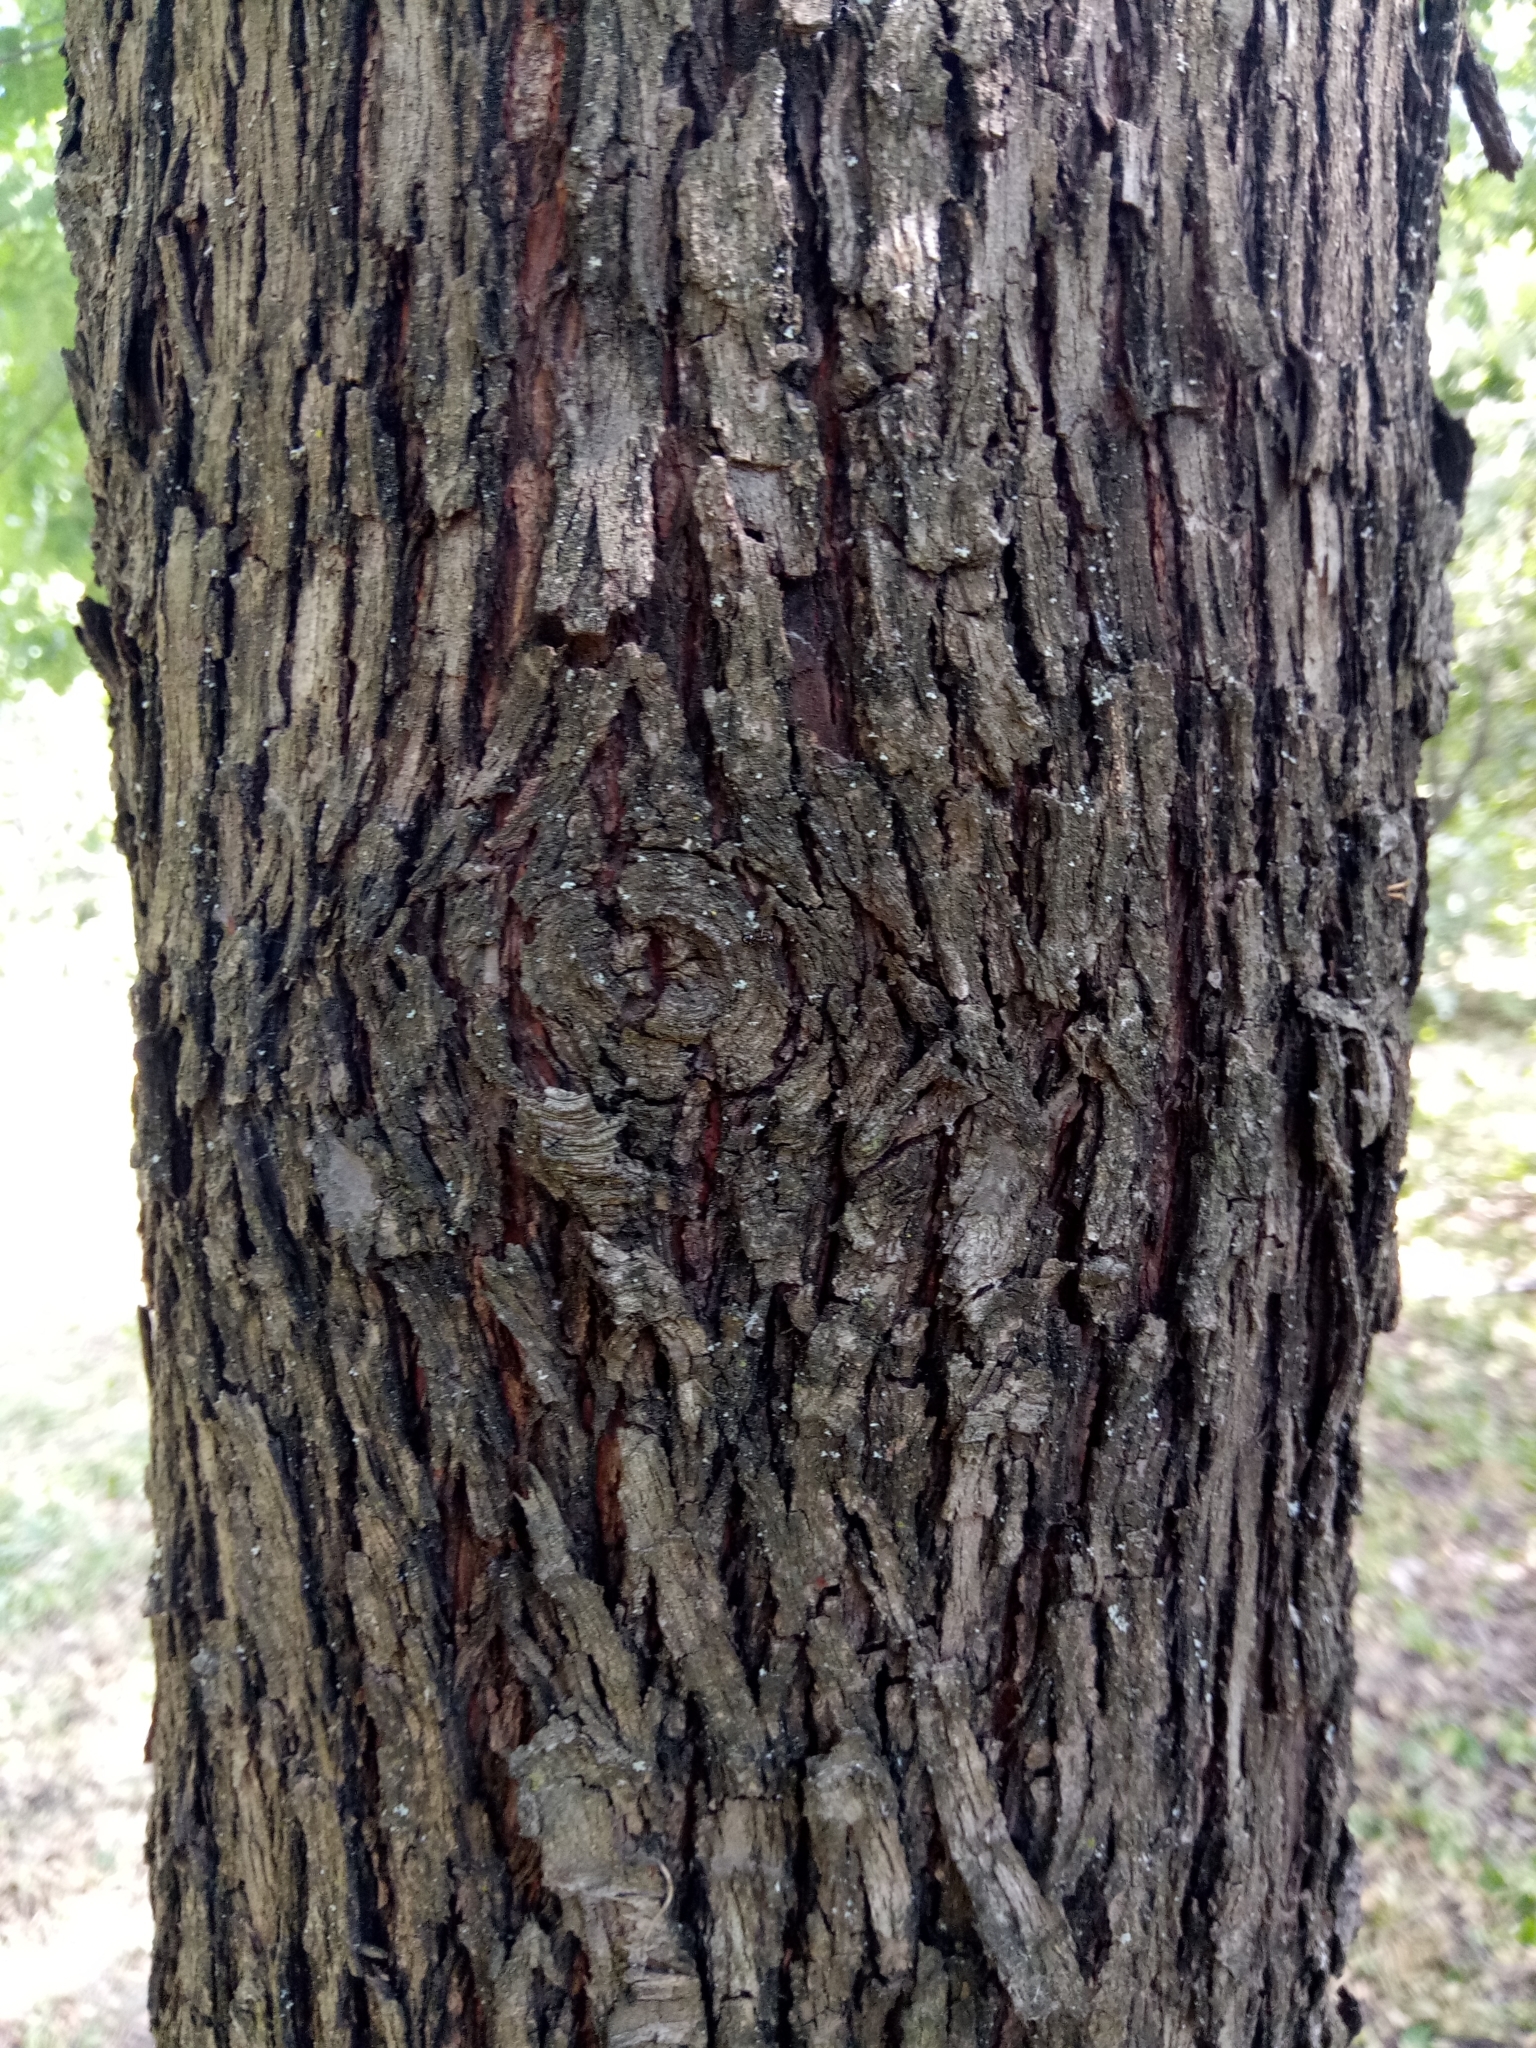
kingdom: Plantae
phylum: Tracheophyta
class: Magnoliopsida
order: Rosales
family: Rosaceae
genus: Cormus
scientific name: Cormus domestica
